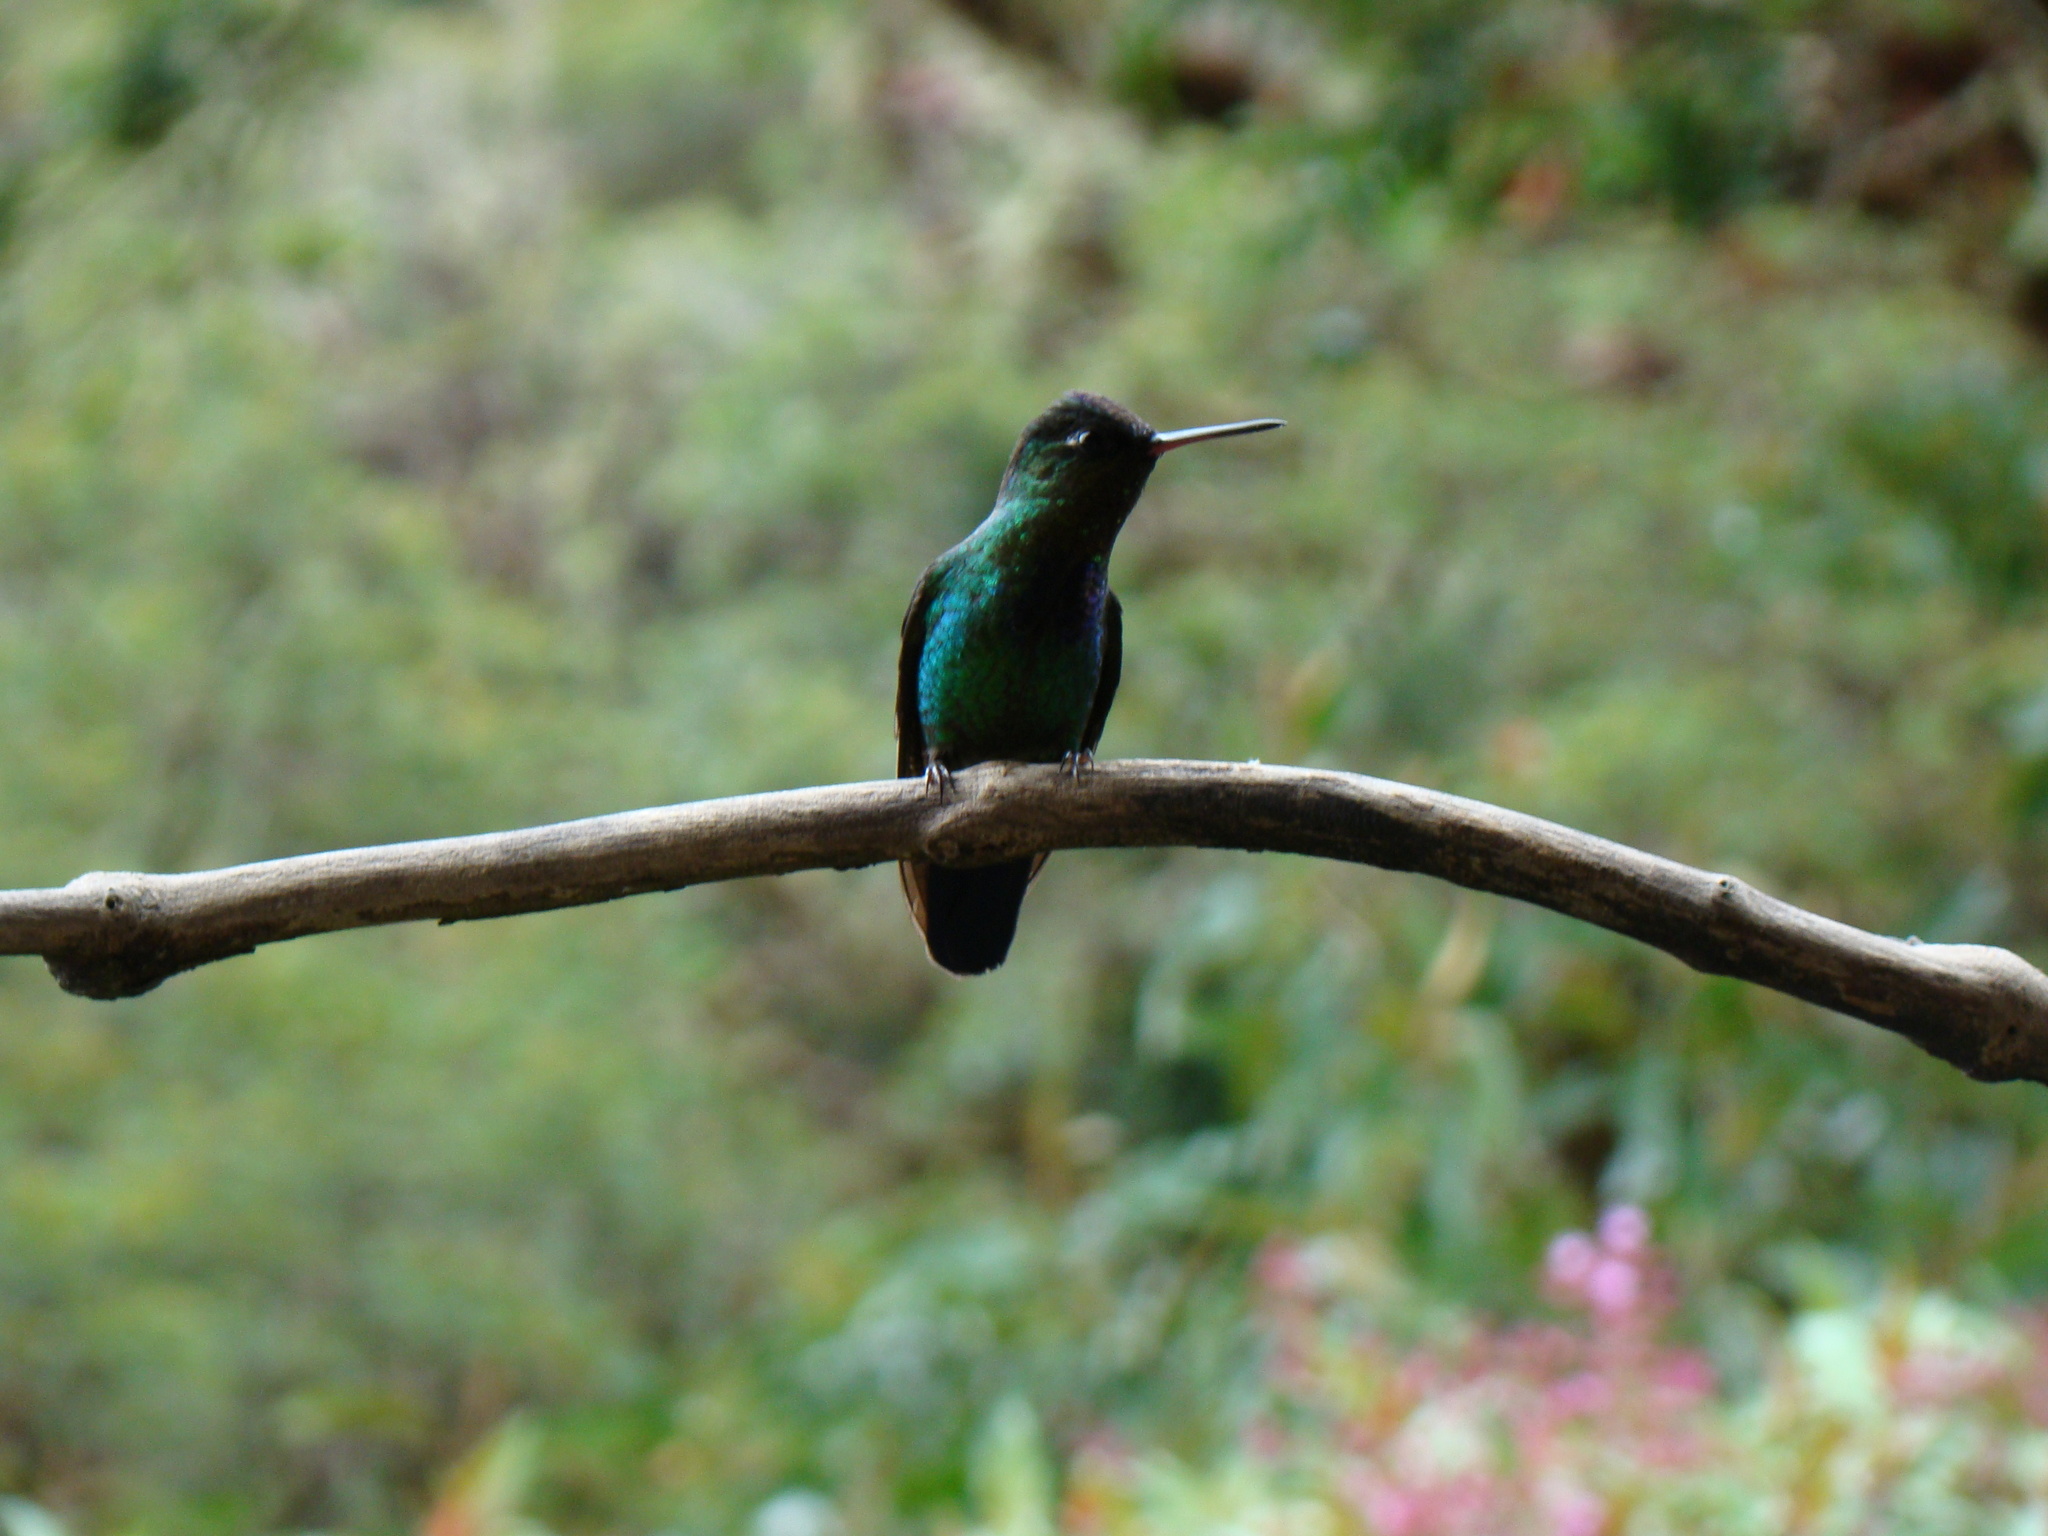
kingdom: Animalia
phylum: Chordata
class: Aves
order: Apodiformes
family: Trochilidae
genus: Eugenes
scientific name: Eugenes spectabilis
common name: Talamanca hummingbird
